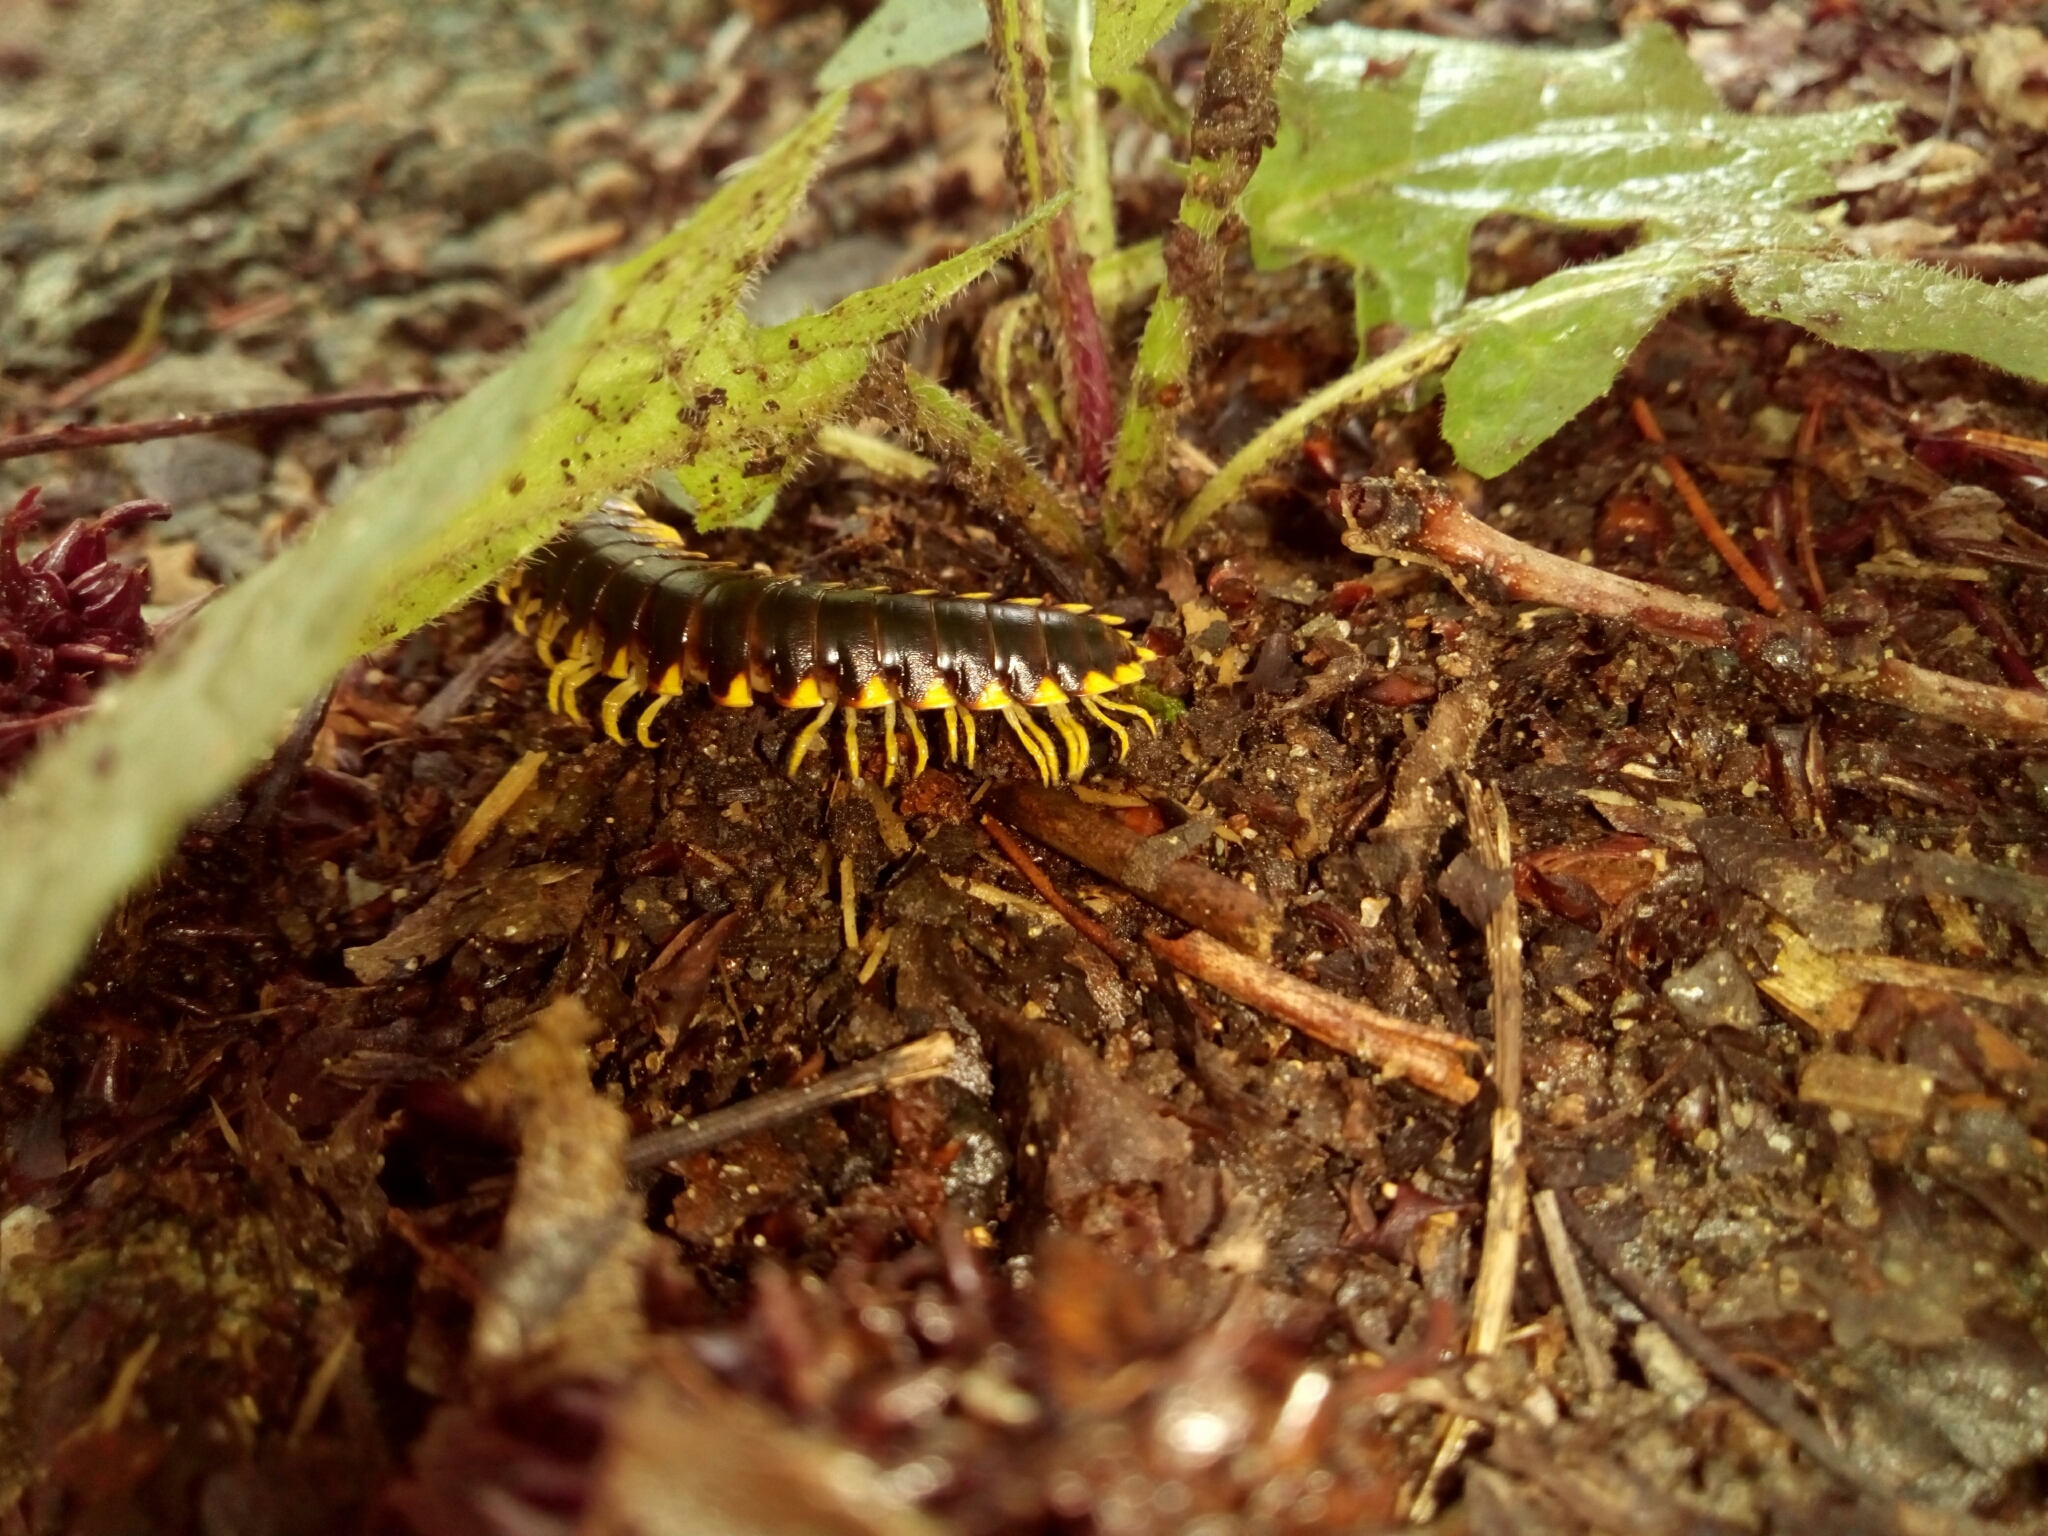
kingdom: Animalia
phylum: Arthropoda
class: Diplopoda
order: Polydesmida
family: Xystodesmidae
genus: Apheloria
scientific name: Apheloria tigana
